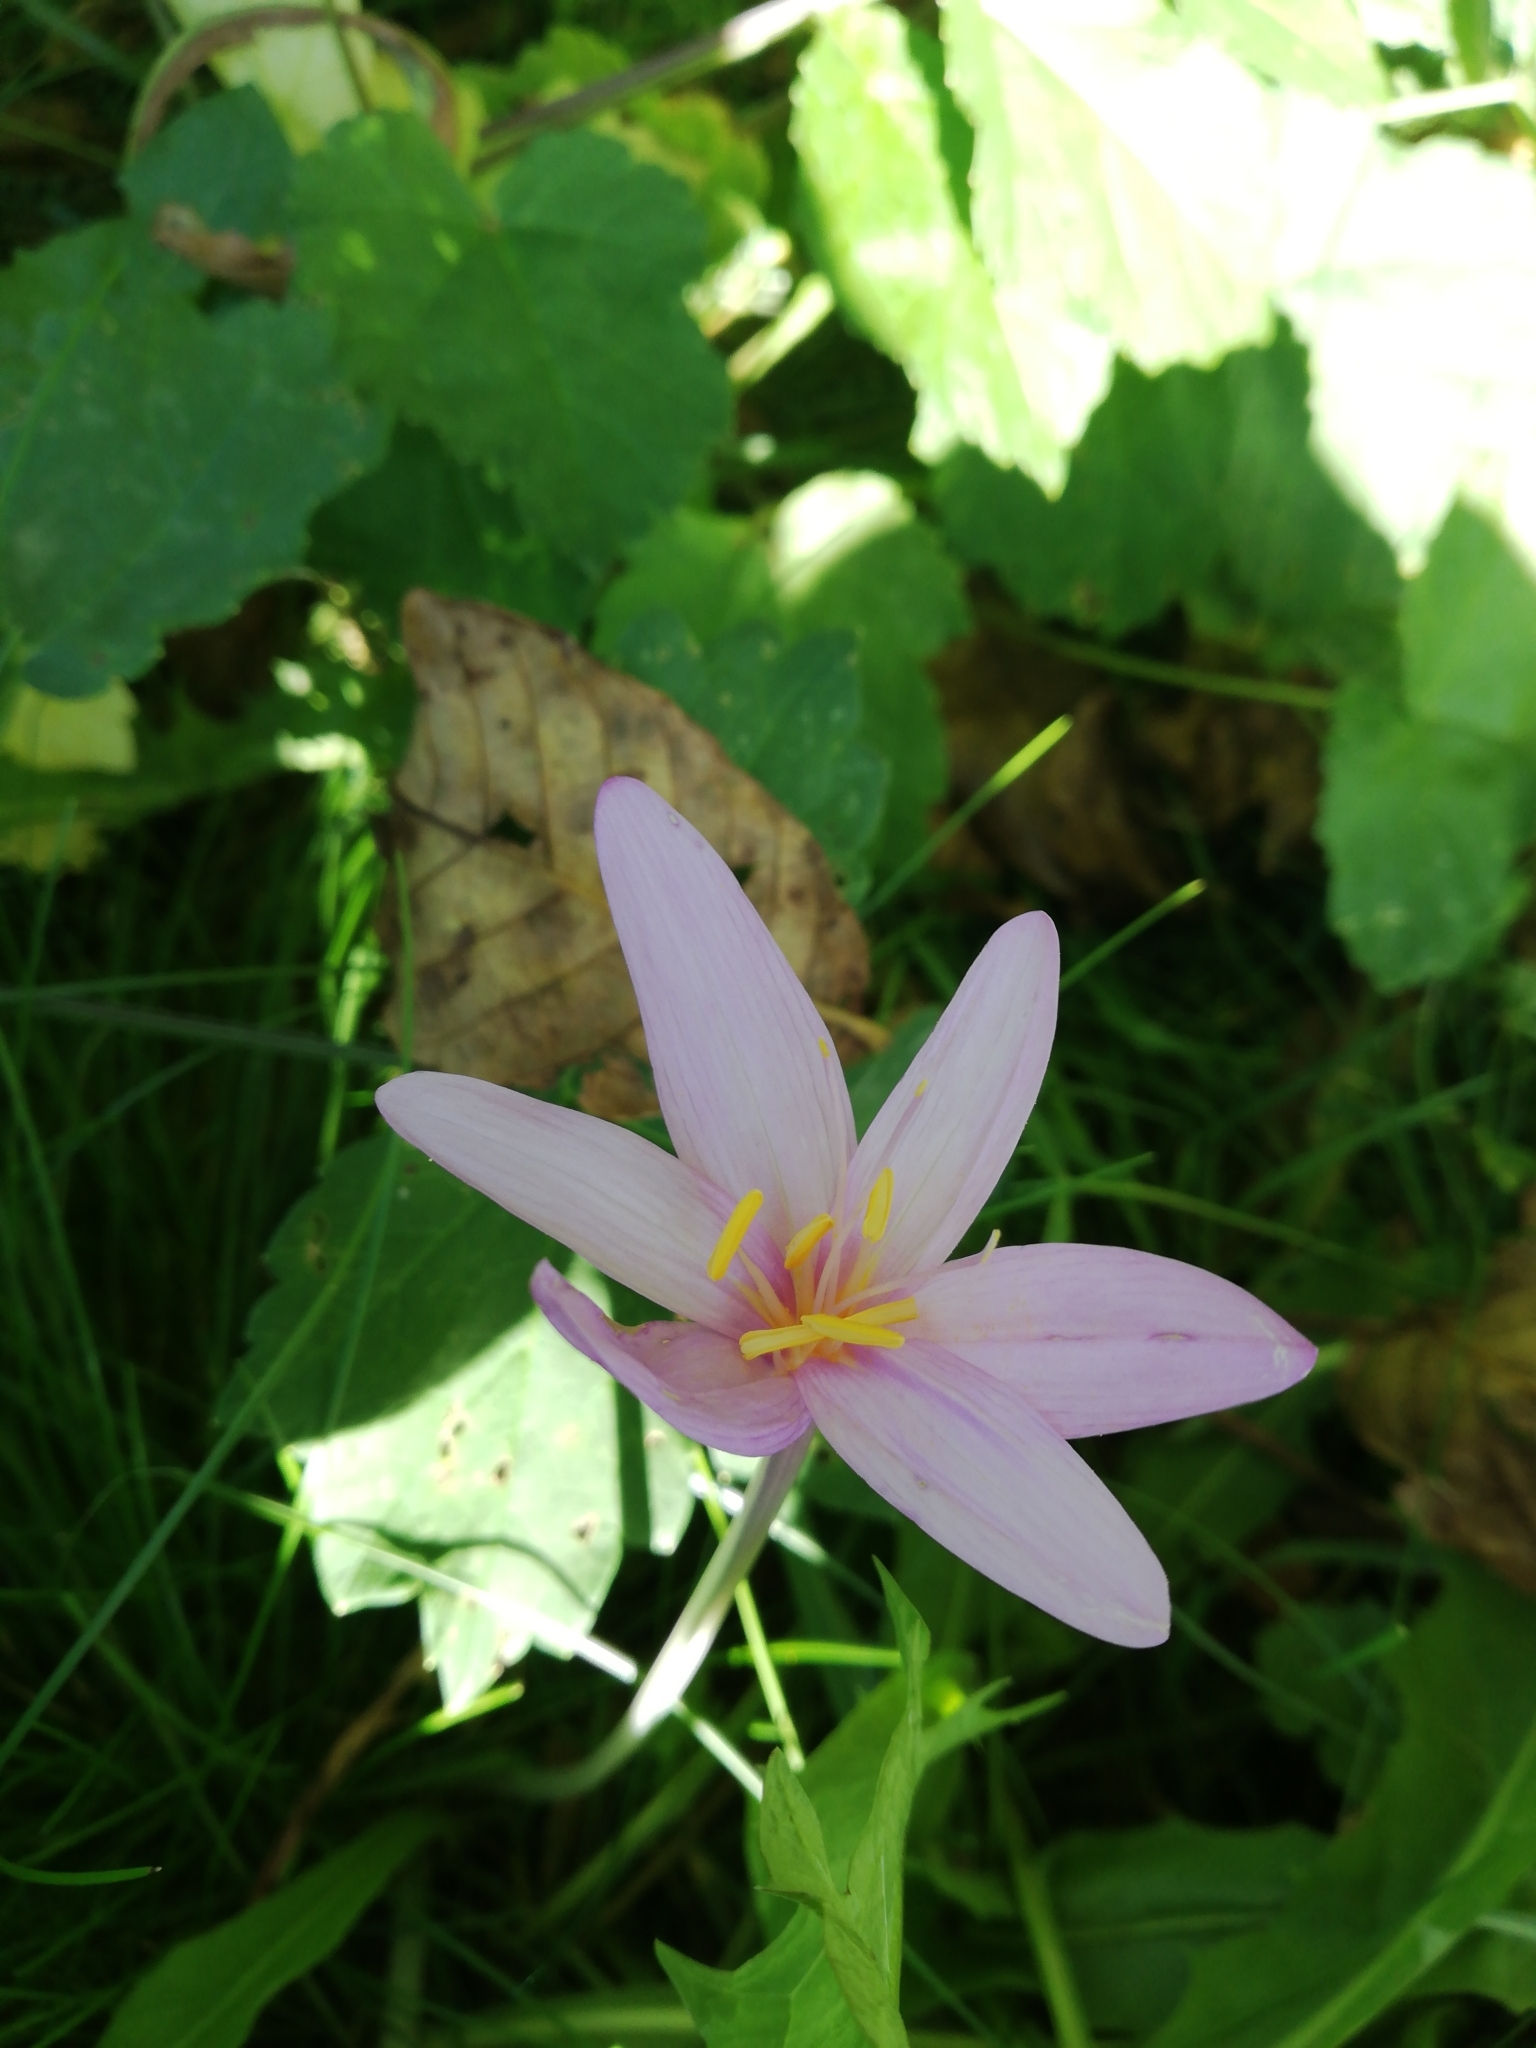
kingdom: Plantae
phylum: Tracheophyta
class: Liliopsida
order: Liliales
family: Colchicaceae
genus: Colchicum
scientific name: Colchicum autumnale
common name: Autumn crocus
